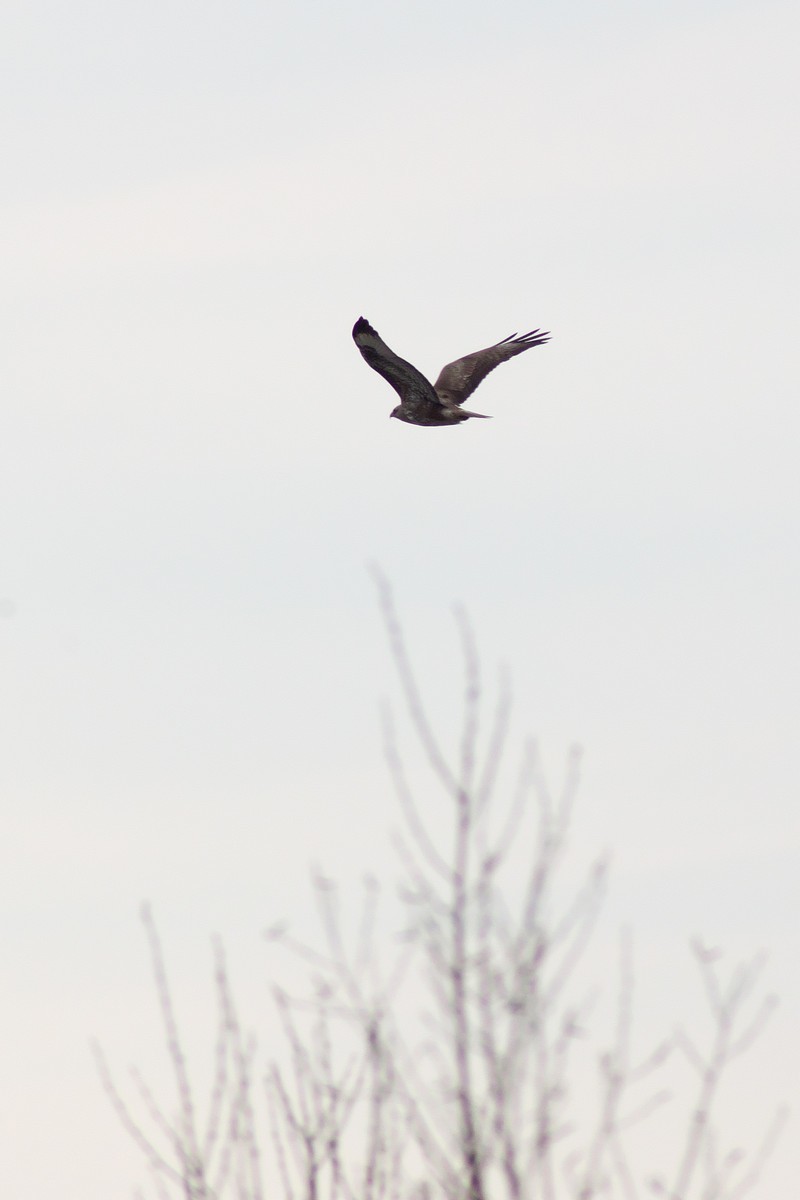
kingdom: Animalia
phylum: Chordata
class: Aves
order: Accipitriformes
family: Accipitridae
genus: Buteo
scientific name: Buteo buteo
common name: Common buzzard
